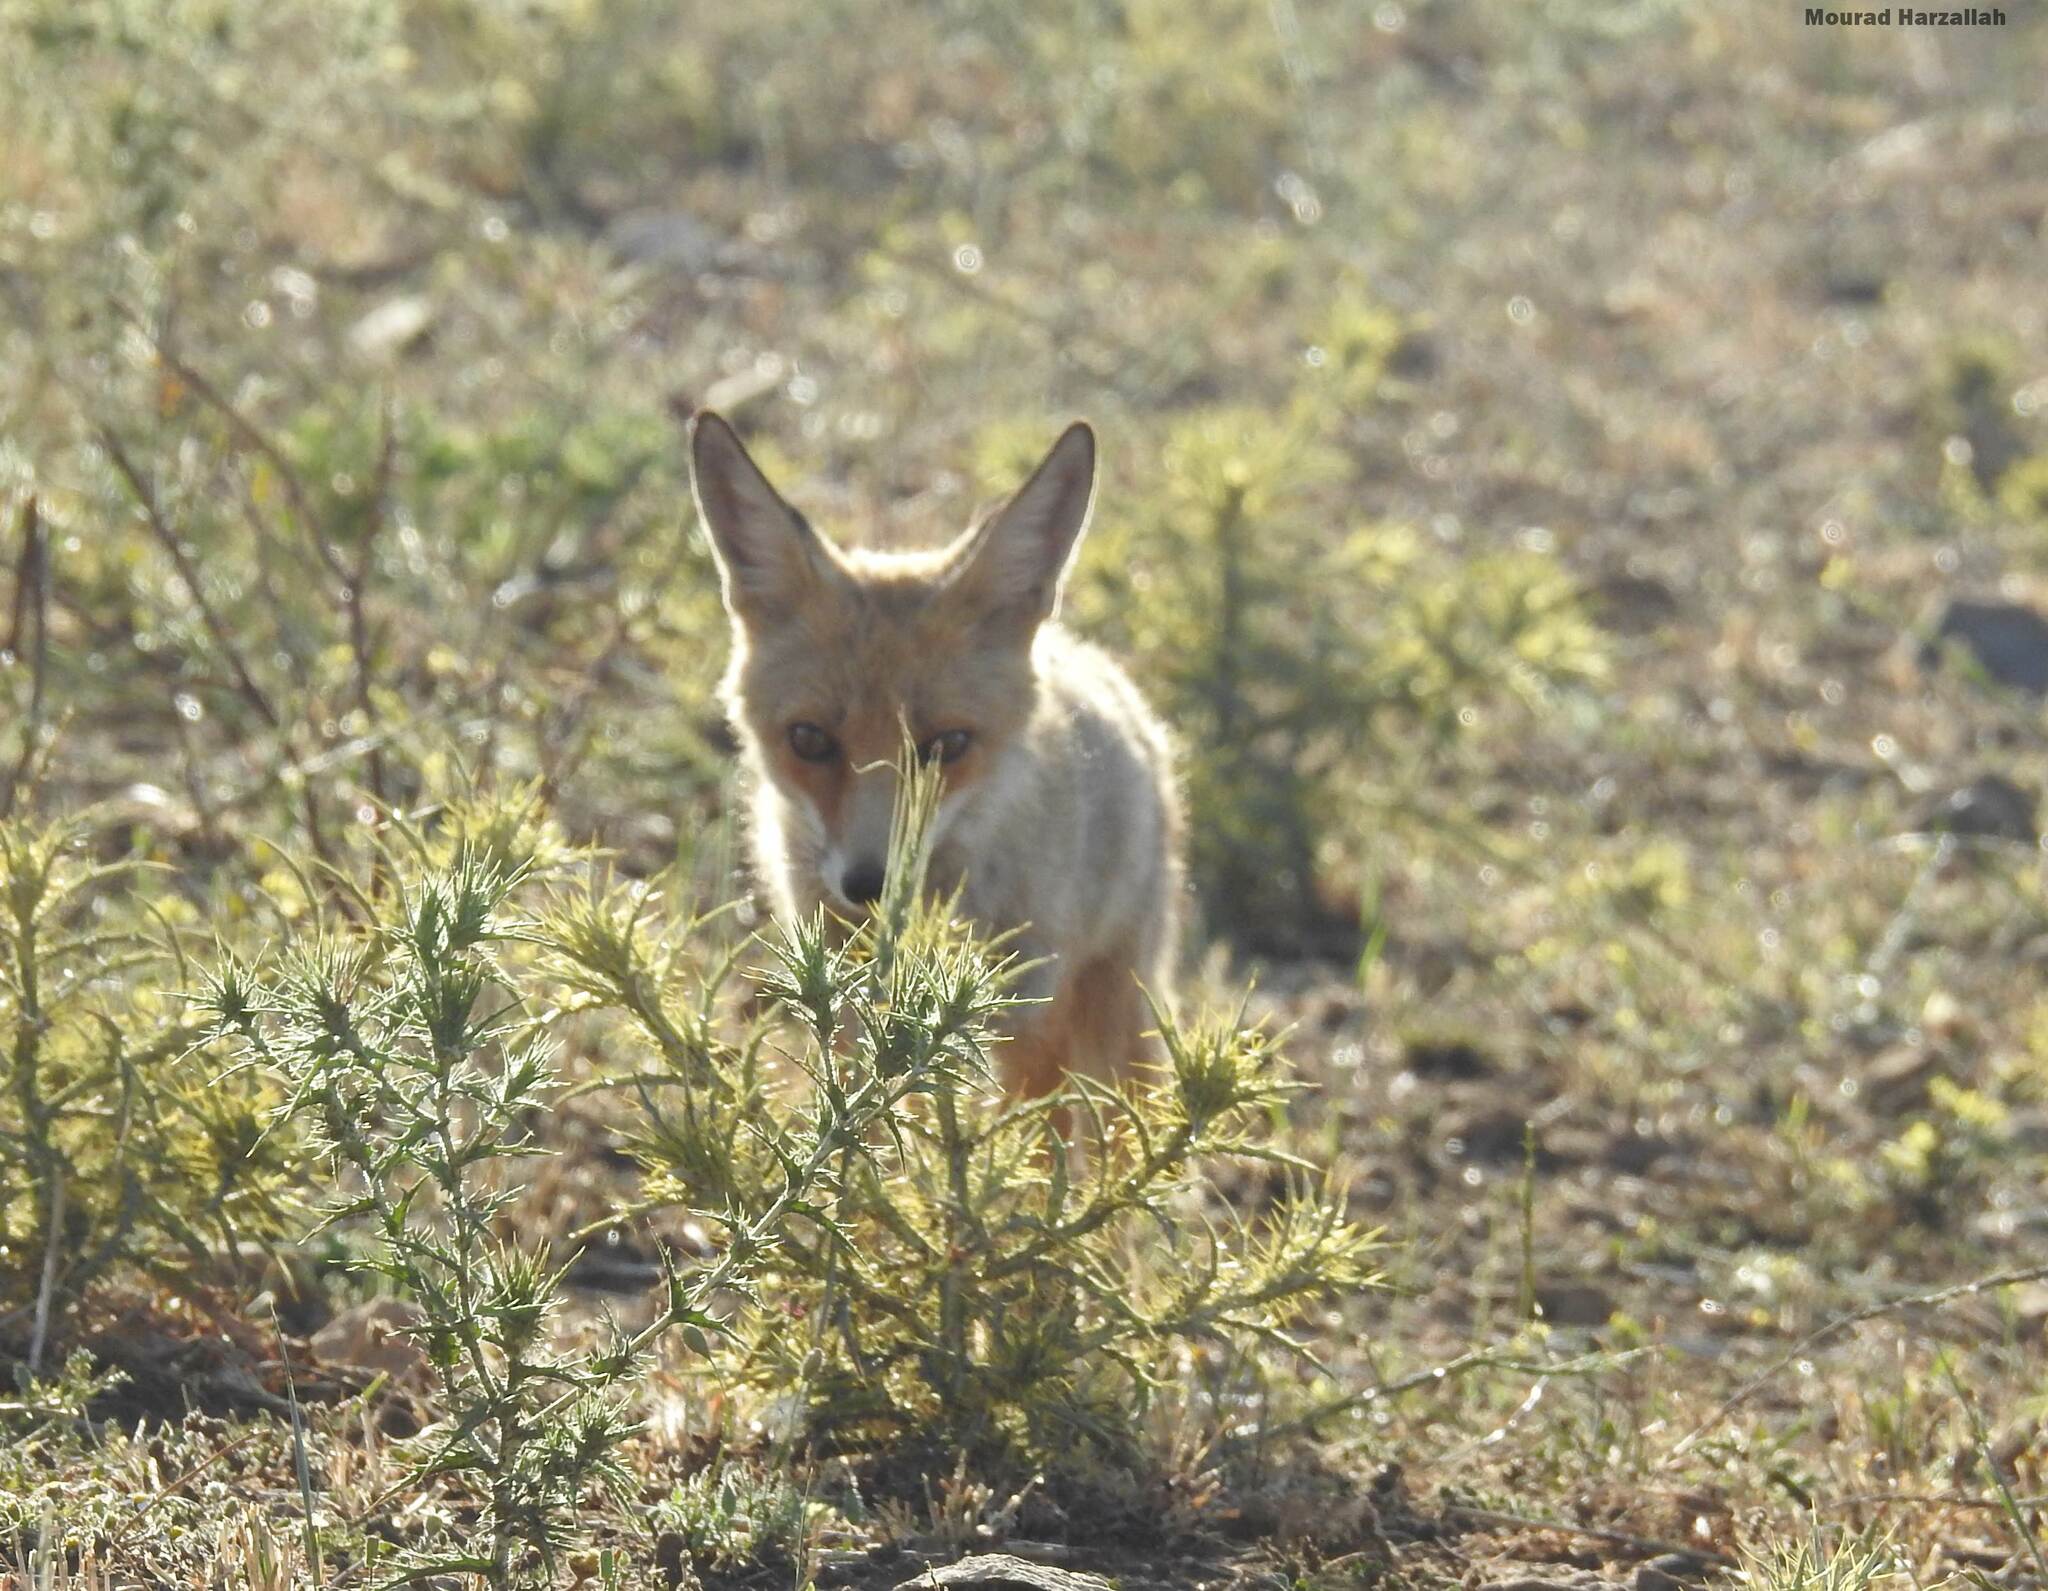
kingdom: Animalia
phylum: Chordata
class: Mammalia
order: Carnivora
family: Canidae
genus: Vulpes
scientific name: Vulpes vulpes
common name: Red fox
